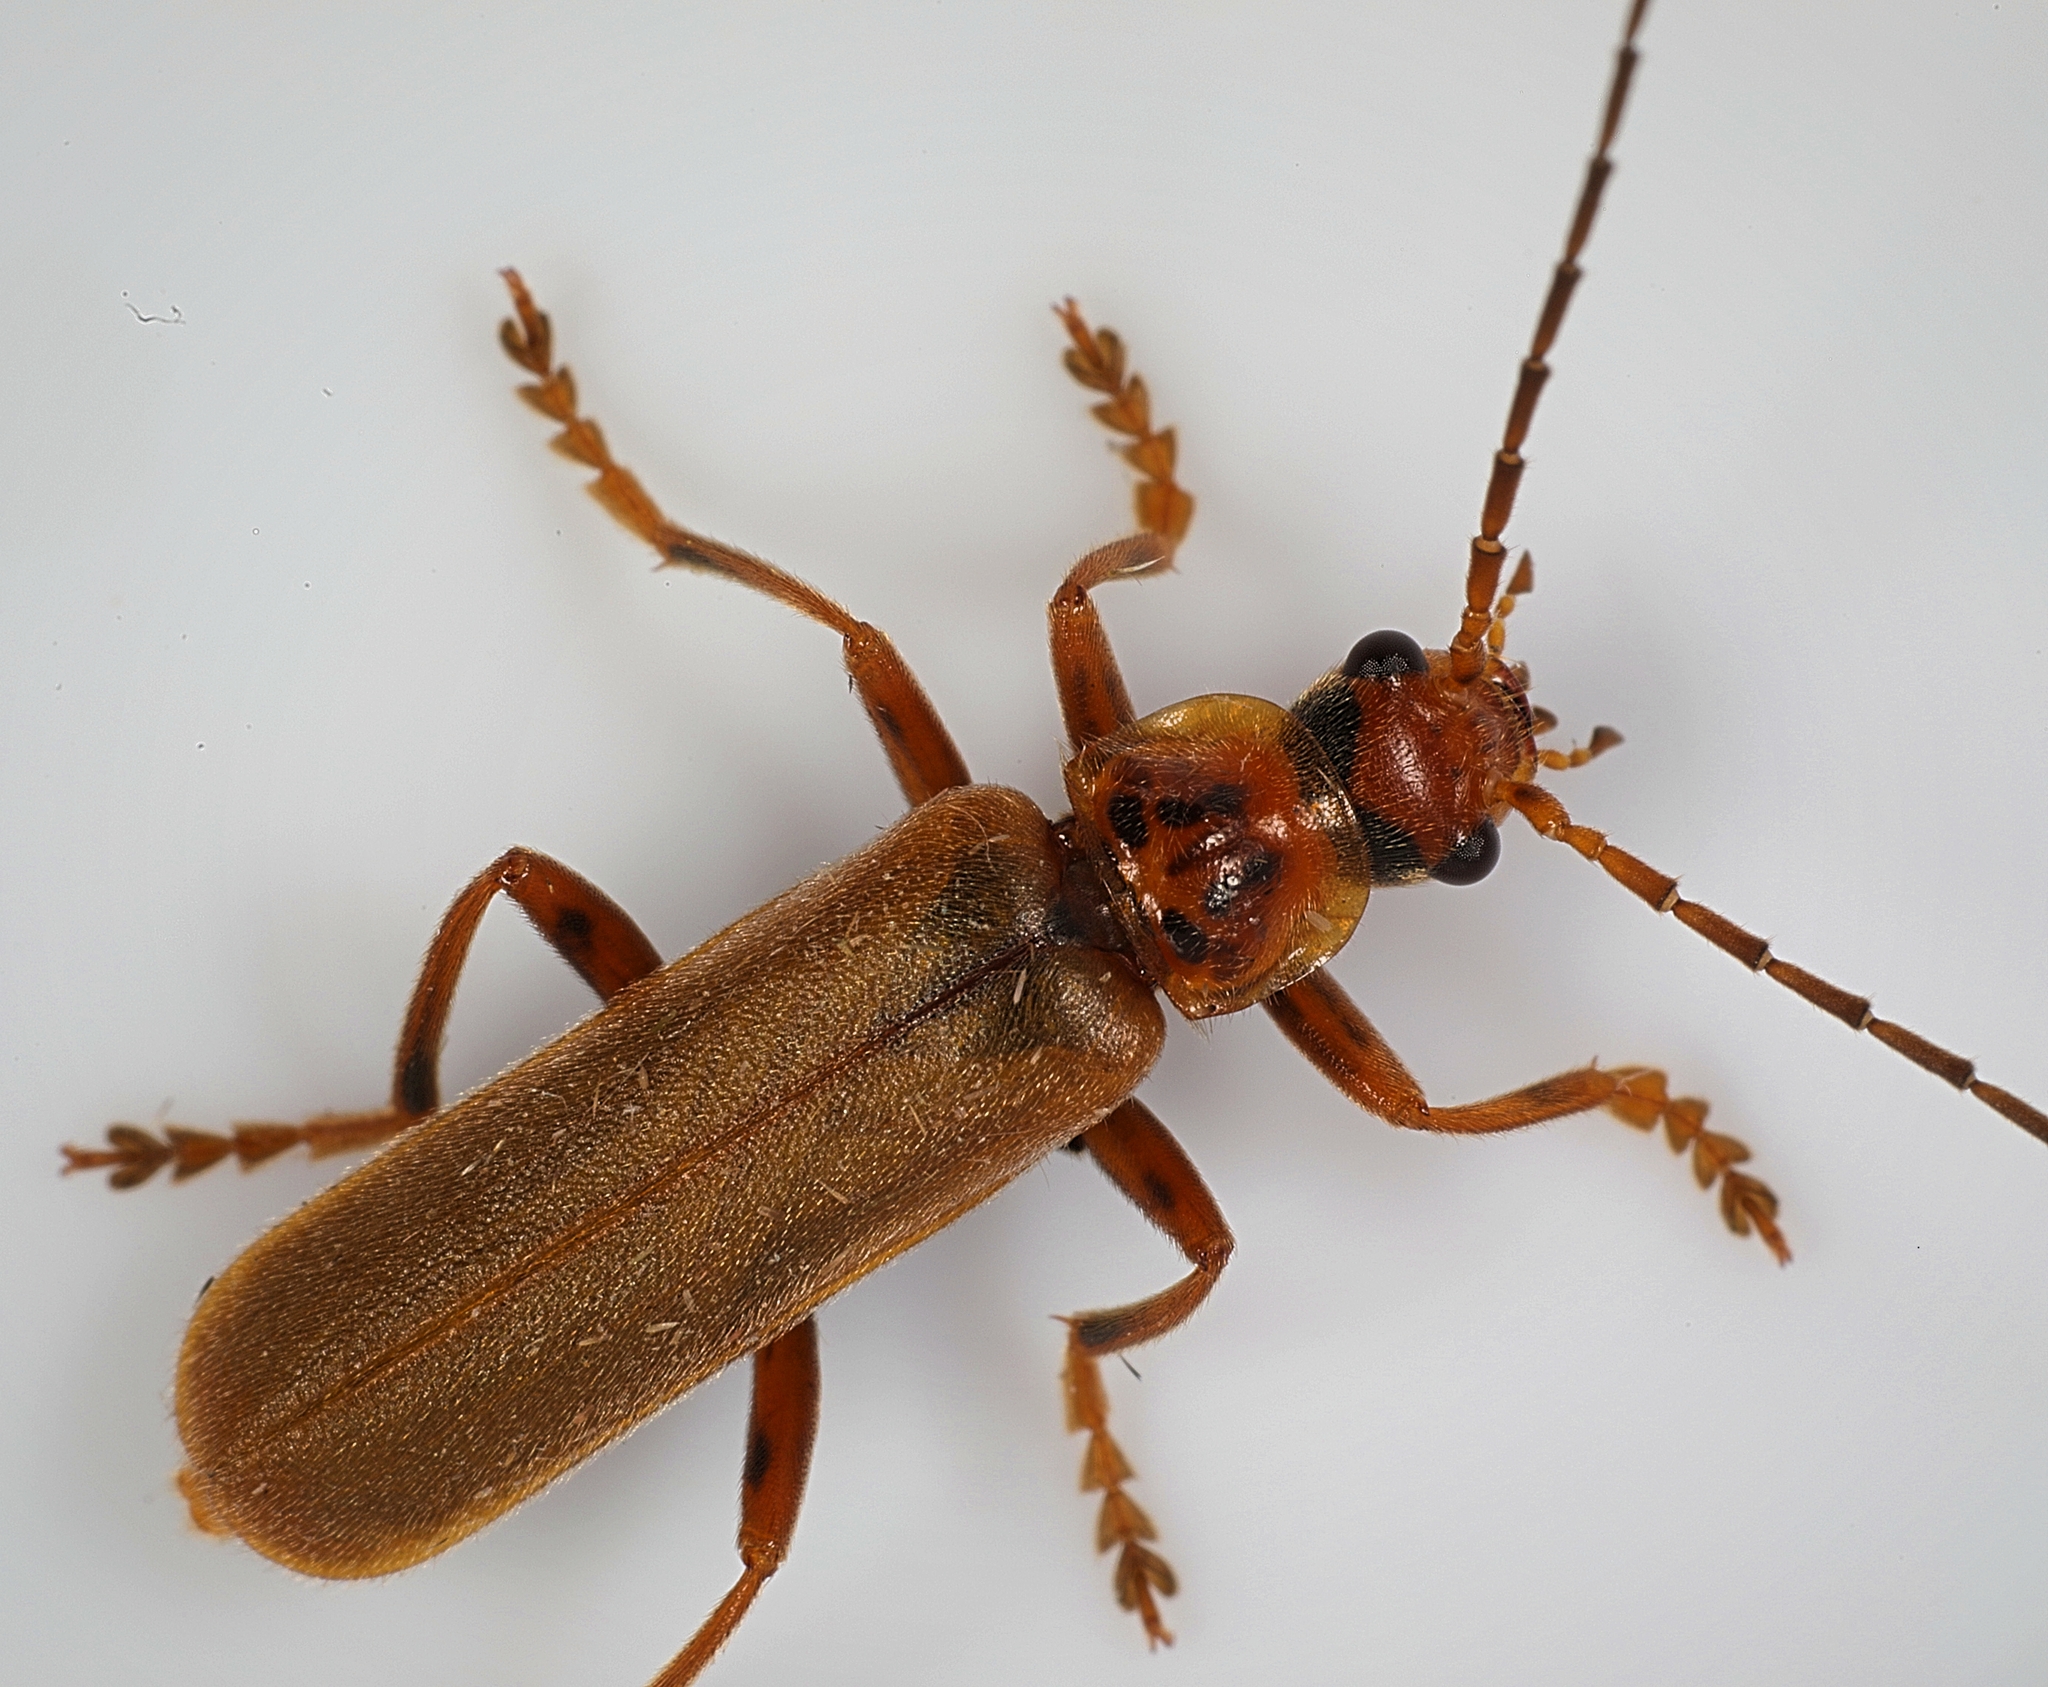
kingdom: Animalia
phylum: Arthropoda
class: Insecta
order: Coleoptera
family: Cantharidae
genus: Cantharis
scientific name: Cantharis rufa
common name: Red-spotted soldier beetle
